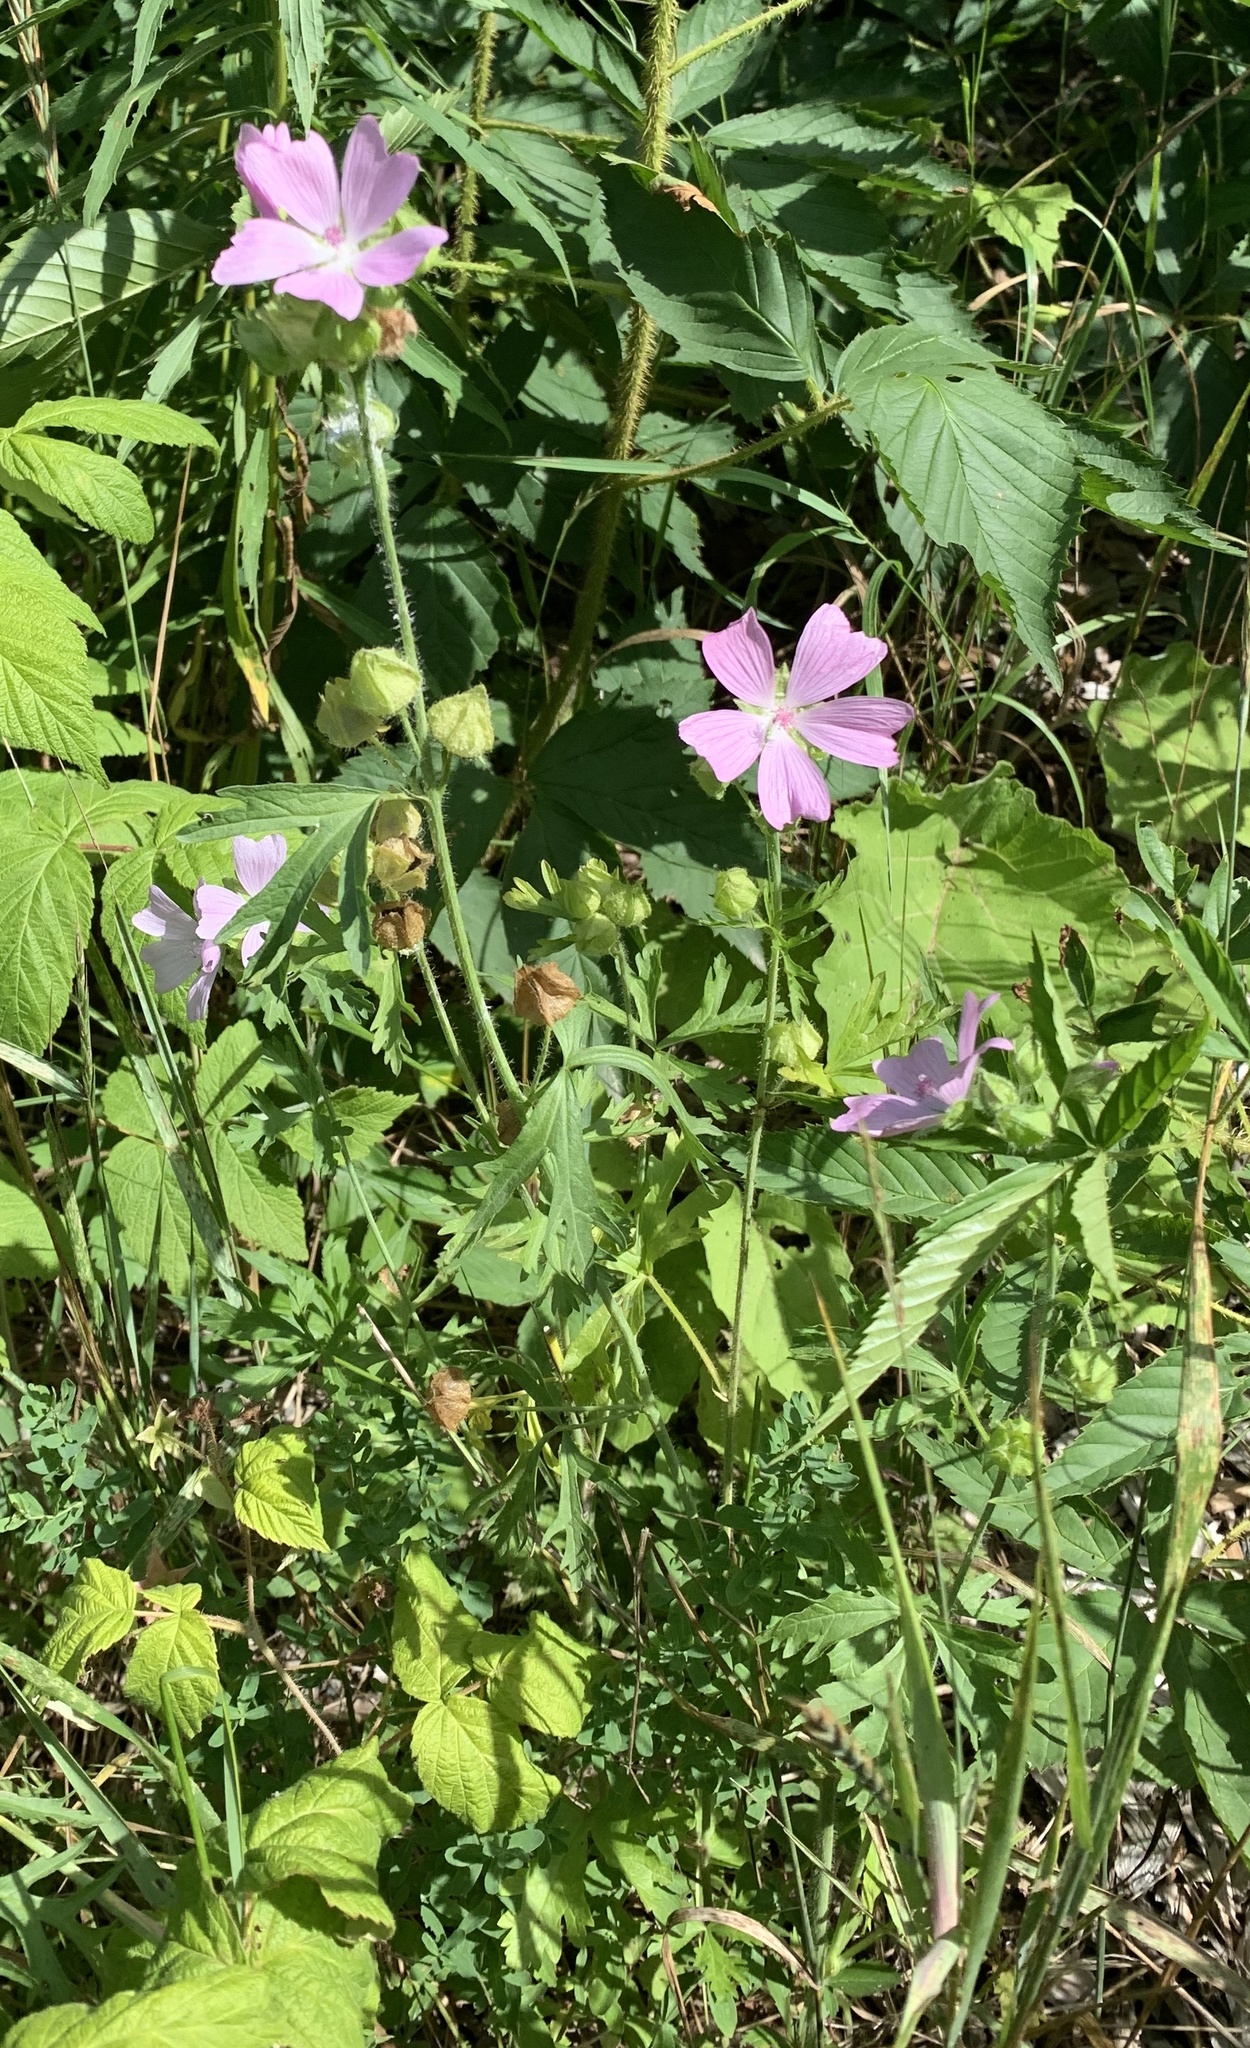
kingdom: Plantae
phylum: Tracheophyta
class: Magnoliopsida
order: Malvales
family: Malvaceae
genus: Malva
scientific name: Malva moschata
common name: Musk mallow
